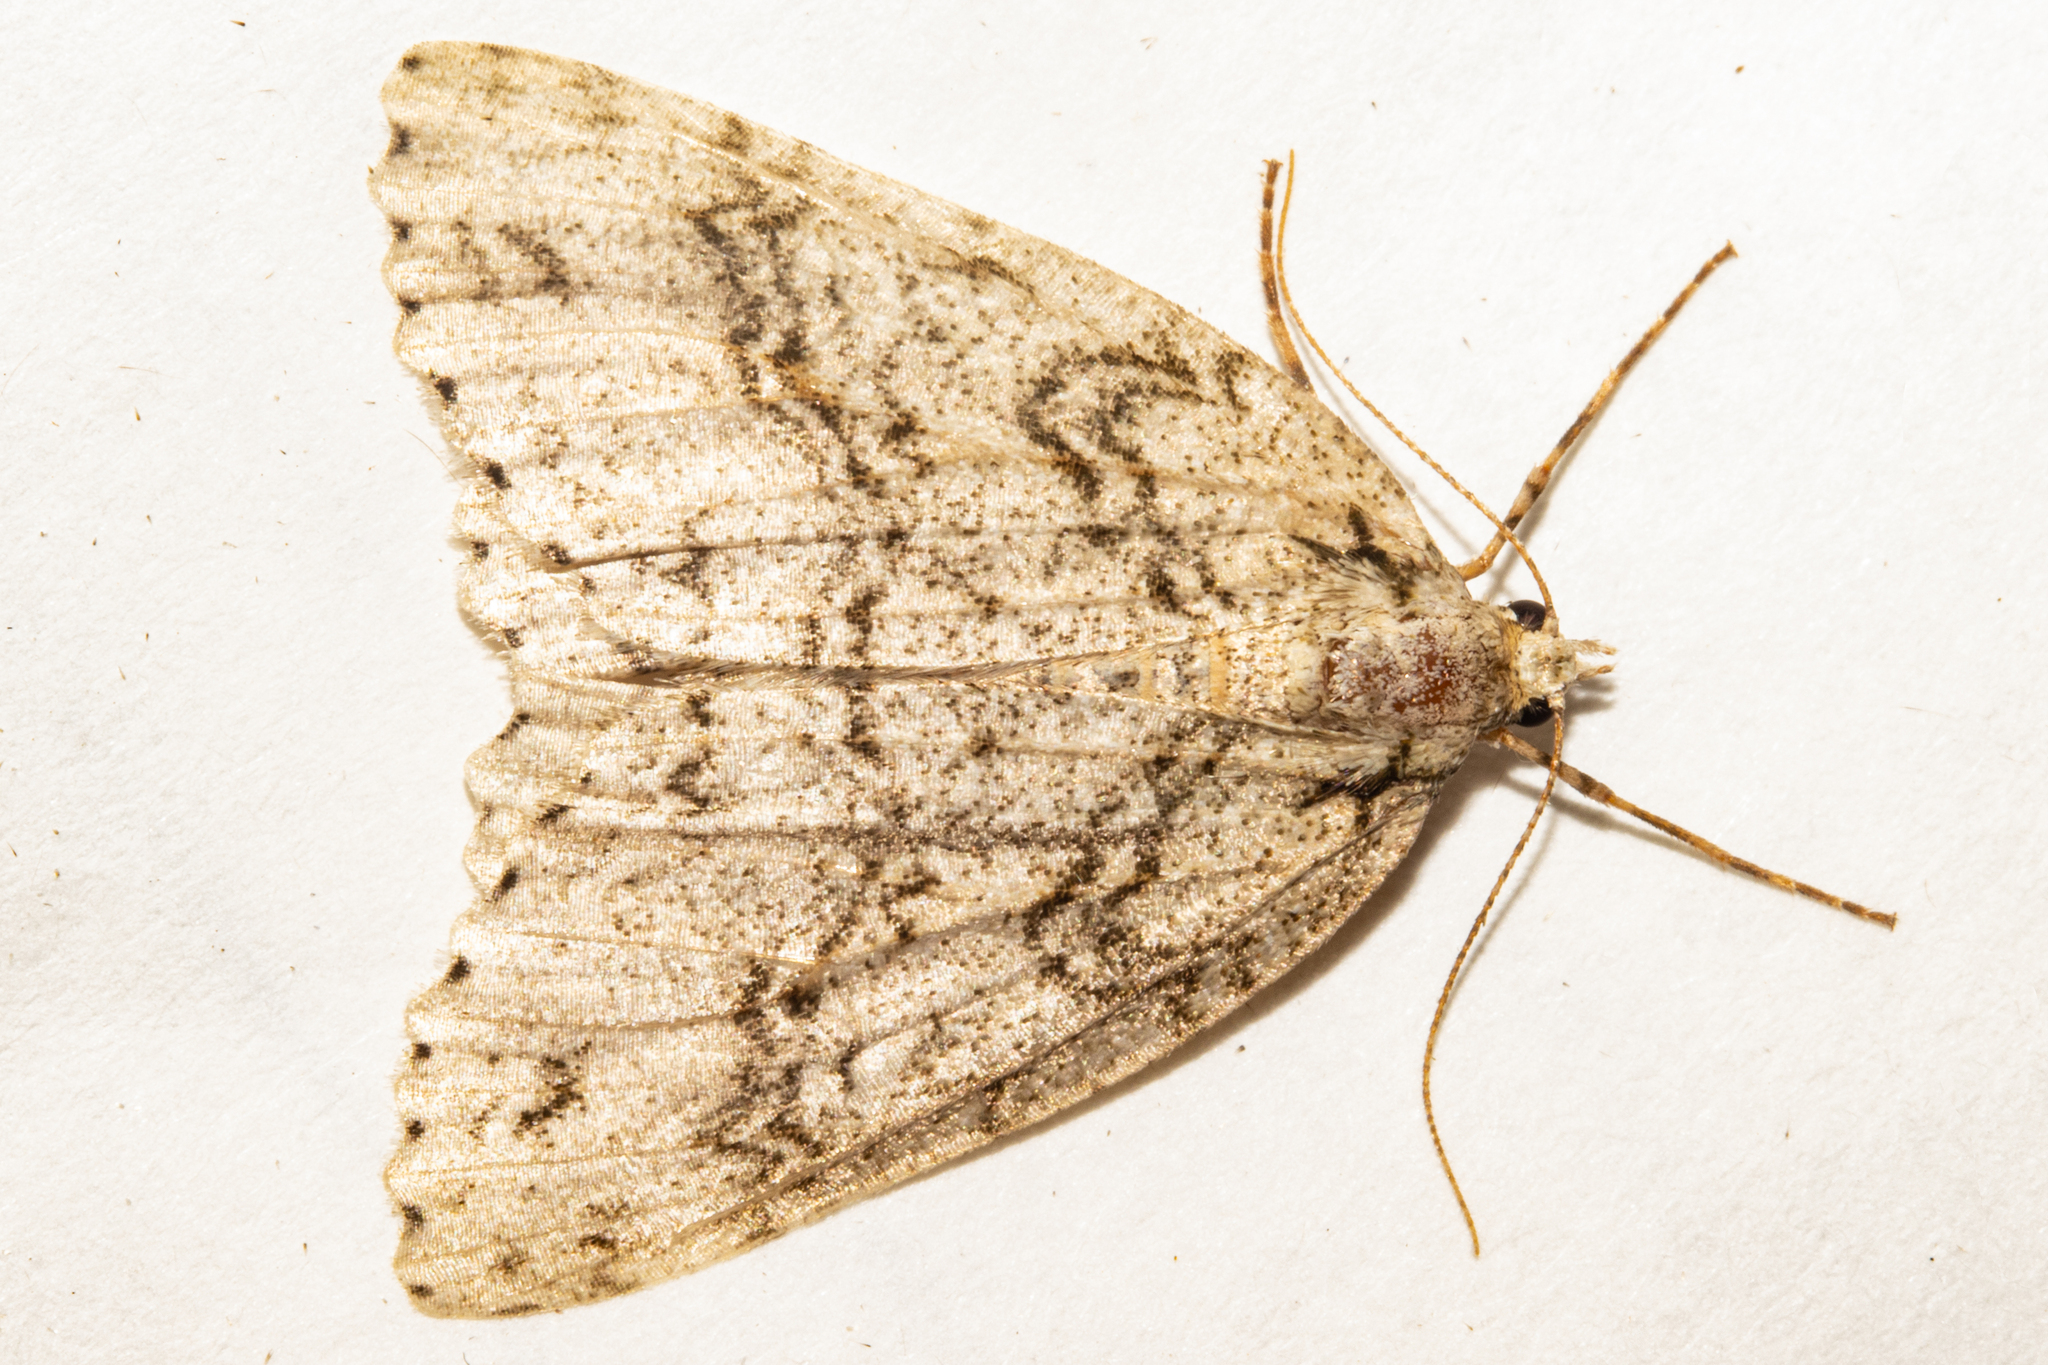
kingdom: Animalia
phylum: Arthropoda
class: Insecta
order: Lepidoptera
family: Geometridae
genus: Pseudocoremia
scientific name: Pseudocoremia rudisata
